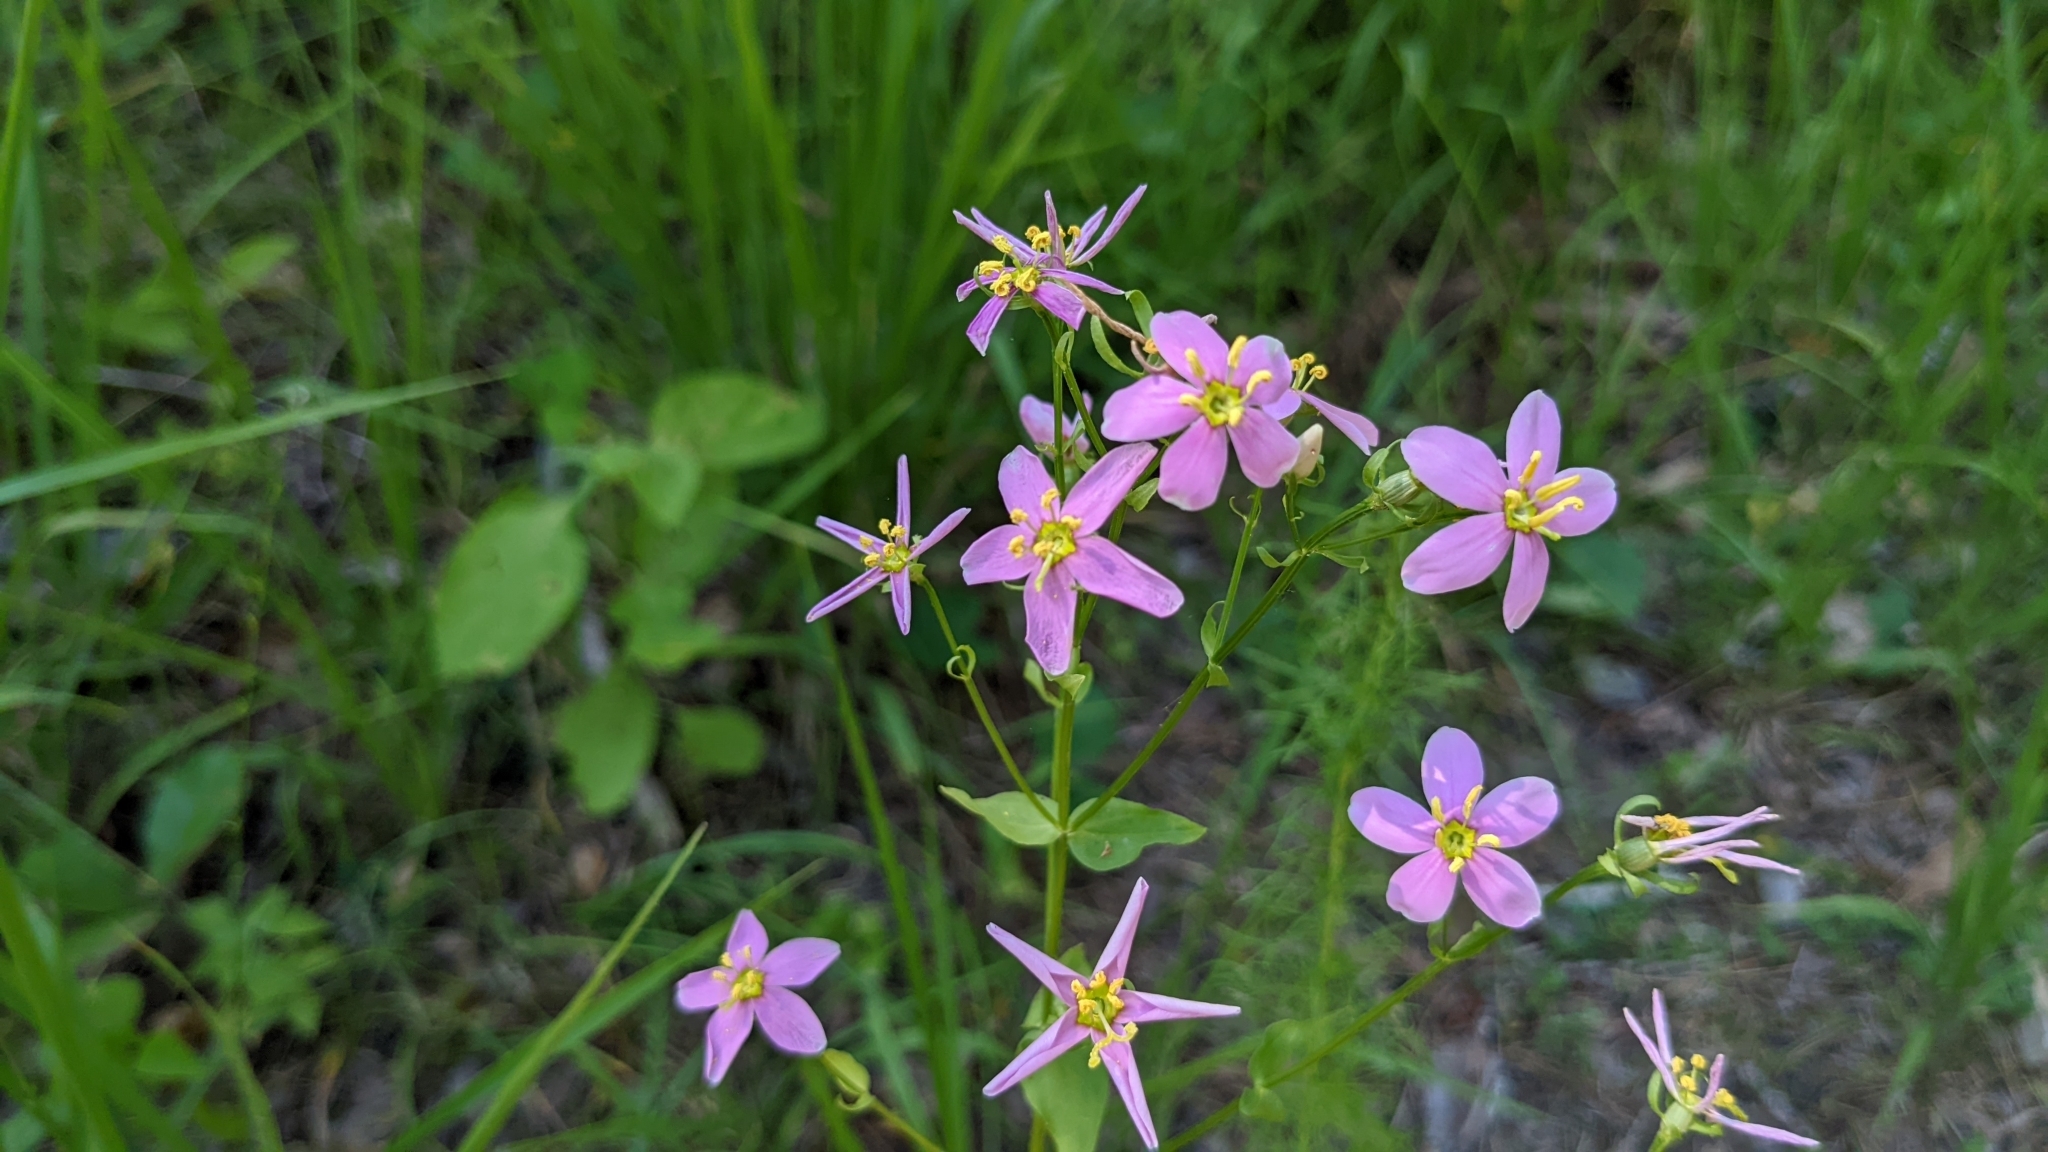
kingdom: Plantae
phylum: Tracheophyta
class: Magnoliopsida
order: Gentianales
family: Gentianaceae
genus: Sabatia
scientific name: Sabatia angularis
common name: Rose-pink
